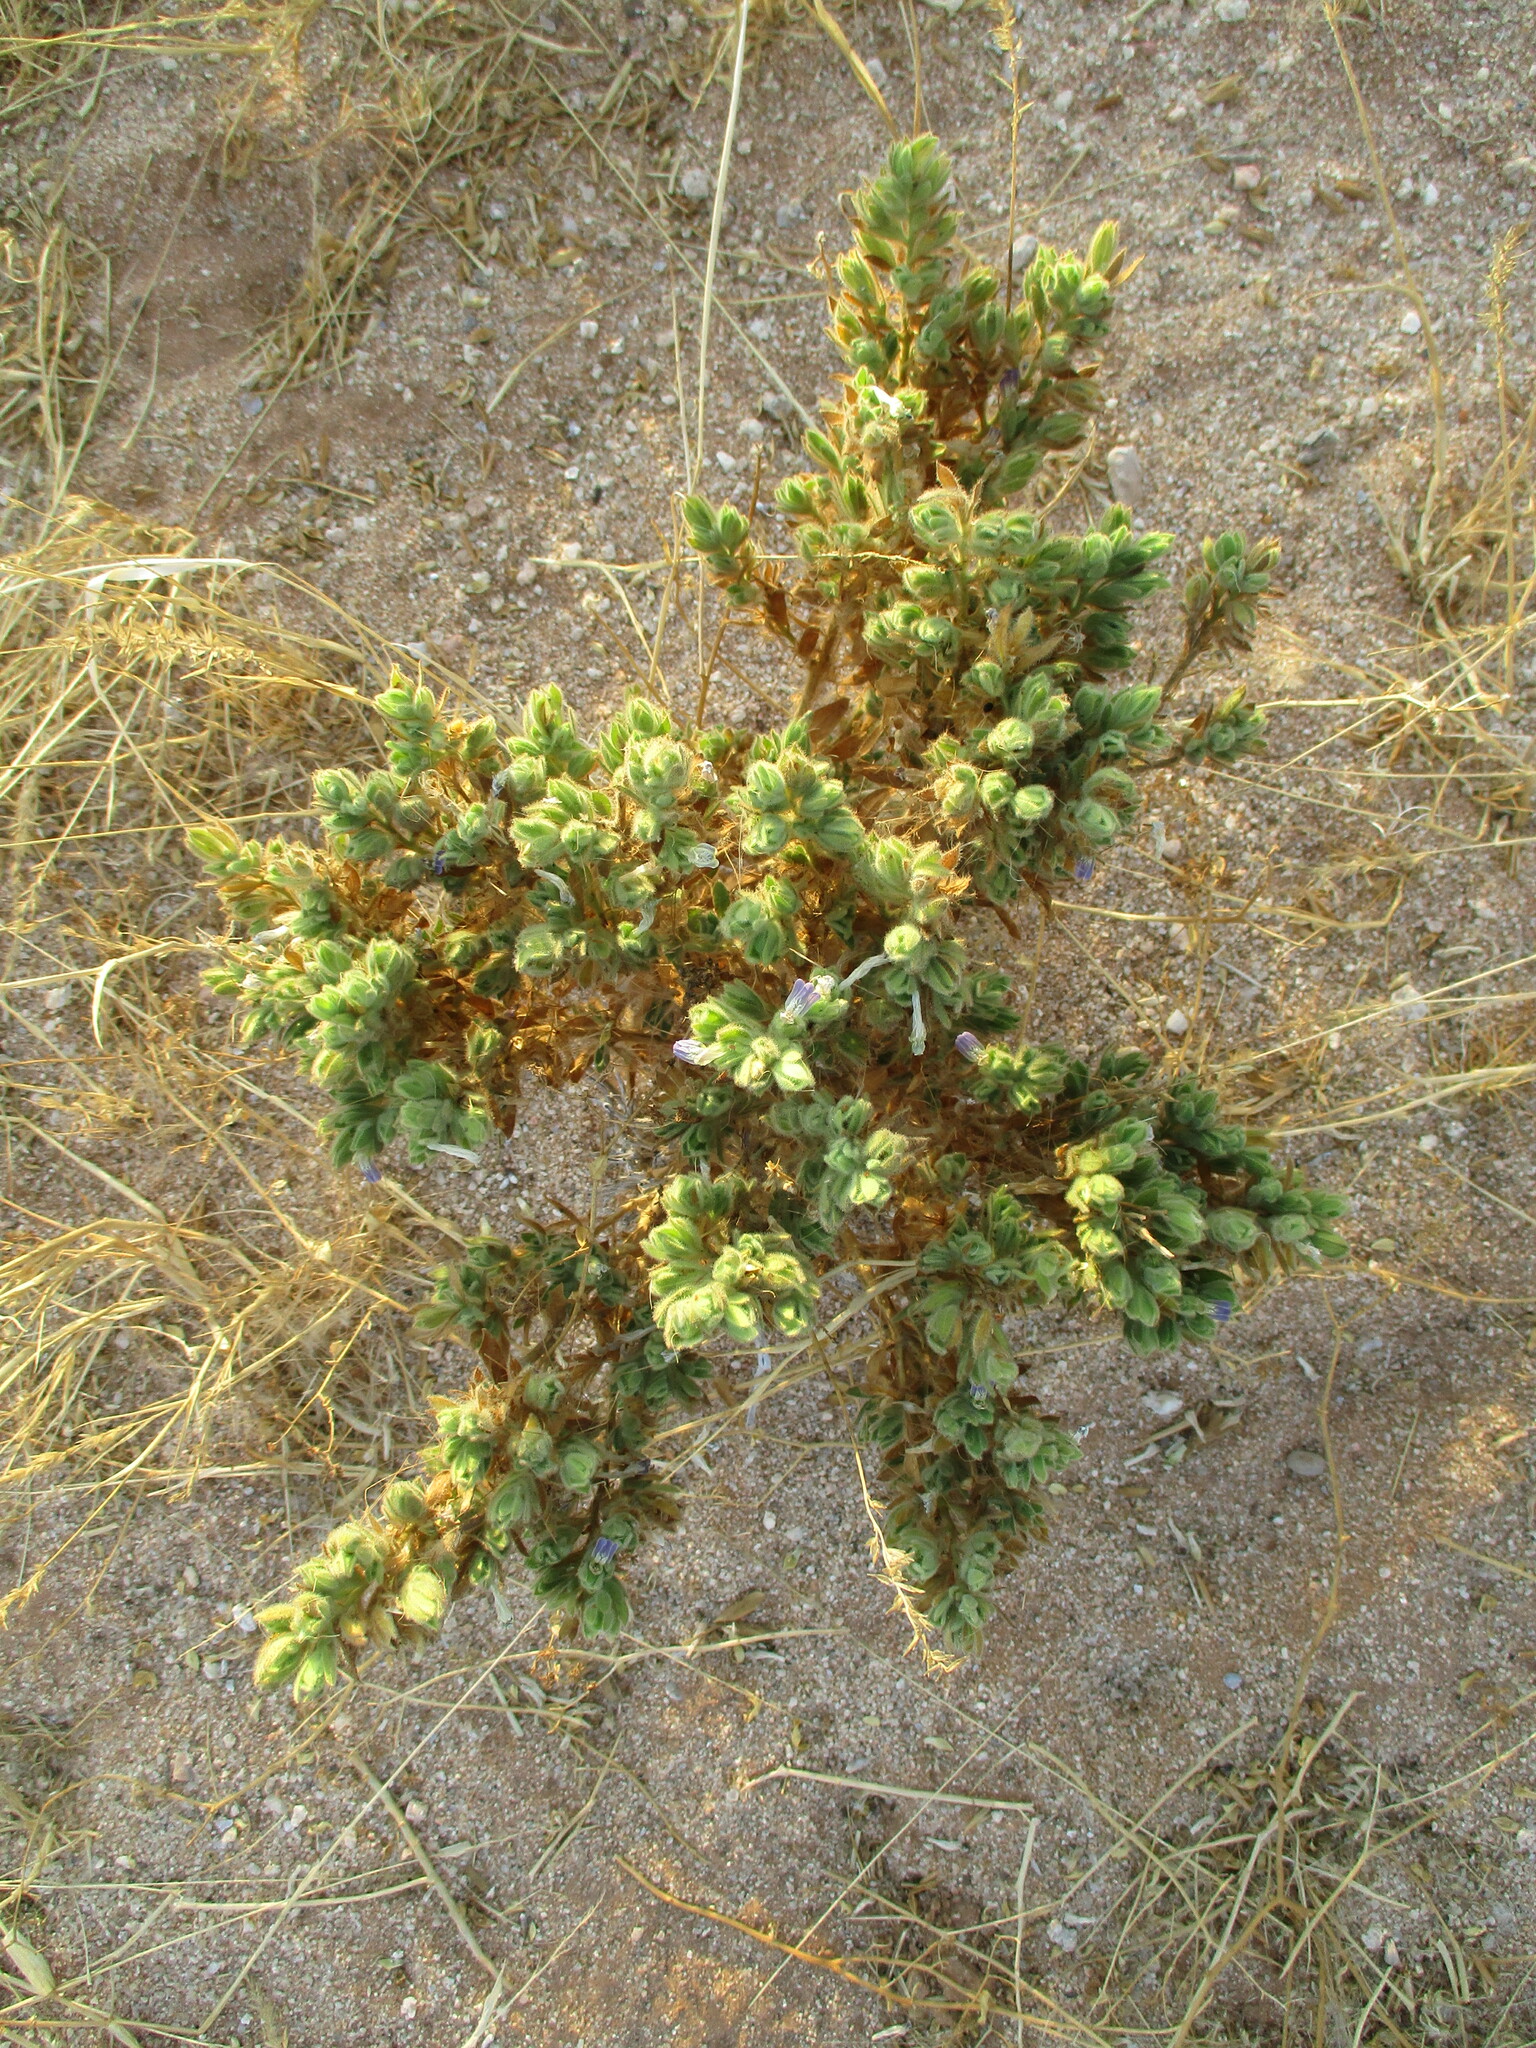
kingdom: Plantae
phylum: Tracheophyta
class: Magnoliopsida
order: Lamiales
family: Acanthaceae
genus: Pogonospermum
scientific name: Pogonospermum
